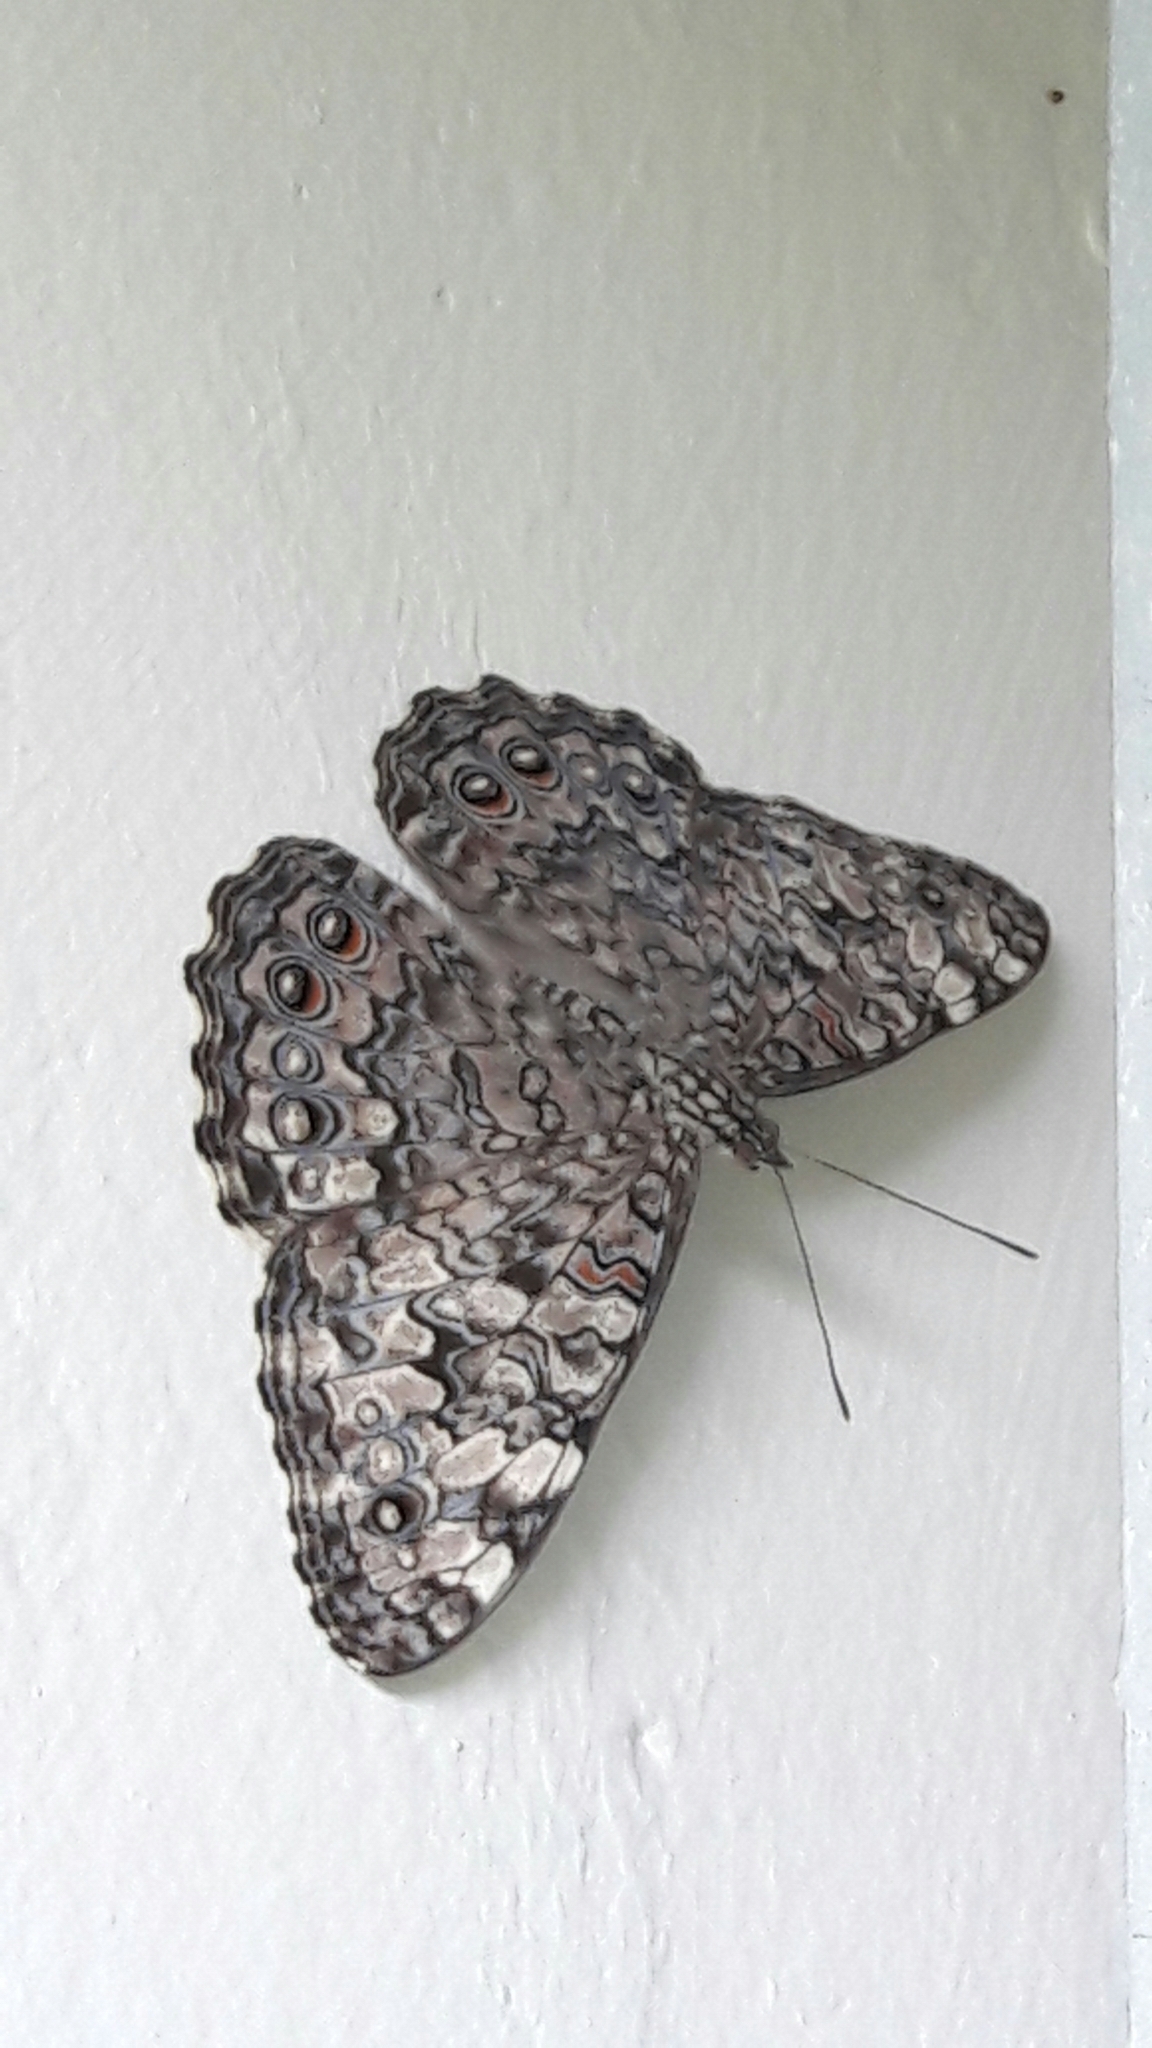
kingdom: Animalia
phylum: Arthropoda
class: Insecta
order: Lepidoptera
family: Nymphalidae
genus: Hamadryas
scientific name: Hamadryas feronia
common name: Variable cracker
